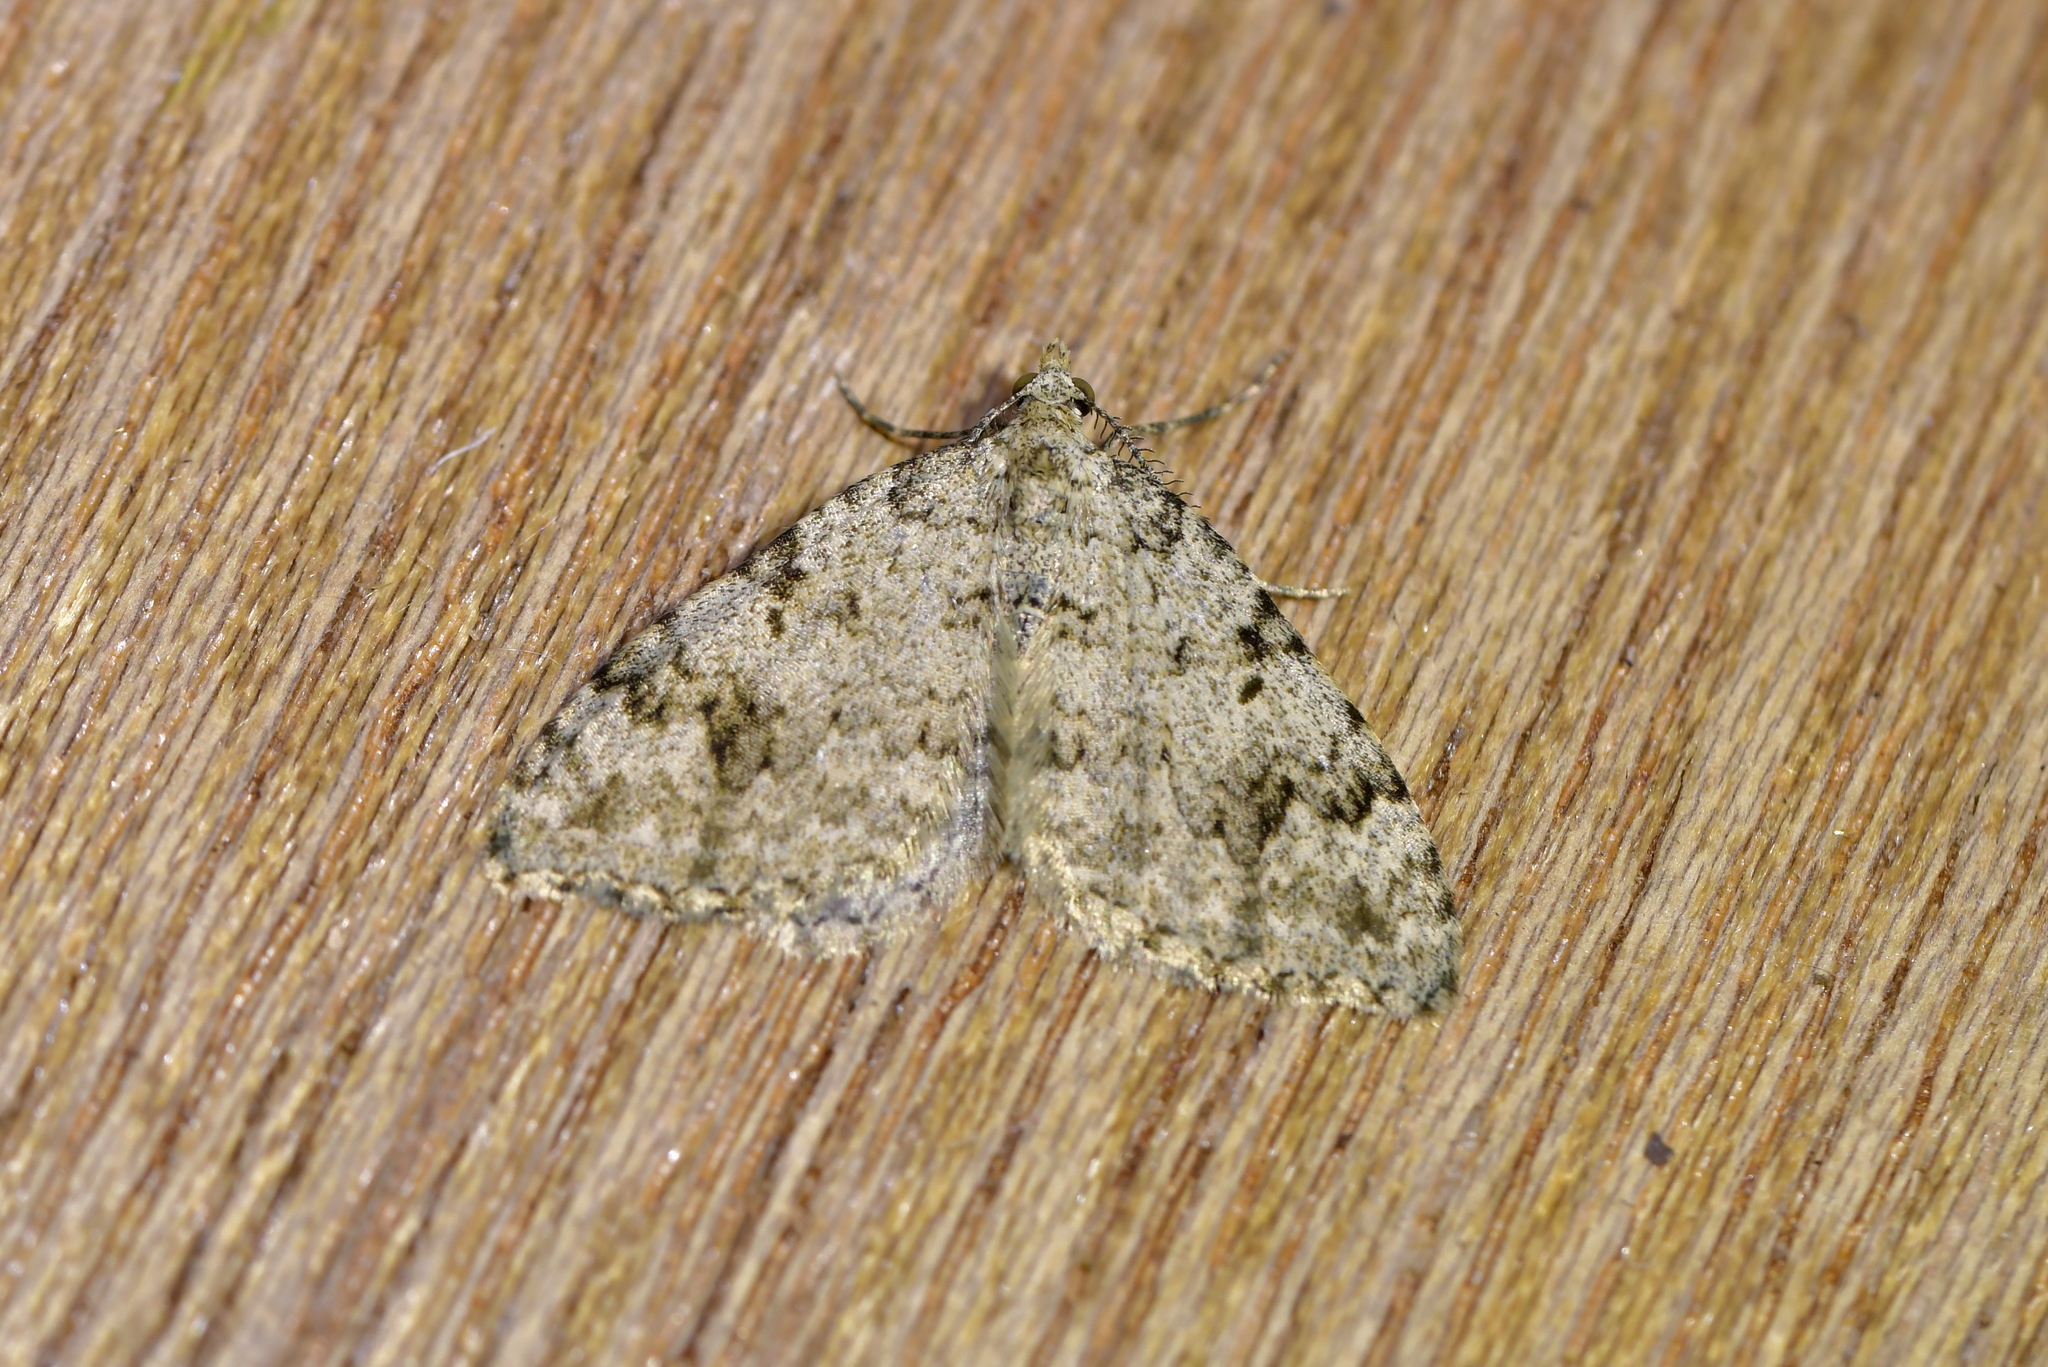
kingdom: Animalia
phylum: Arthropoda
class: Insecta
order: Lepidoptera
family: Geometridae
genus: Helastia
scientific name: Helastia cinerearia
